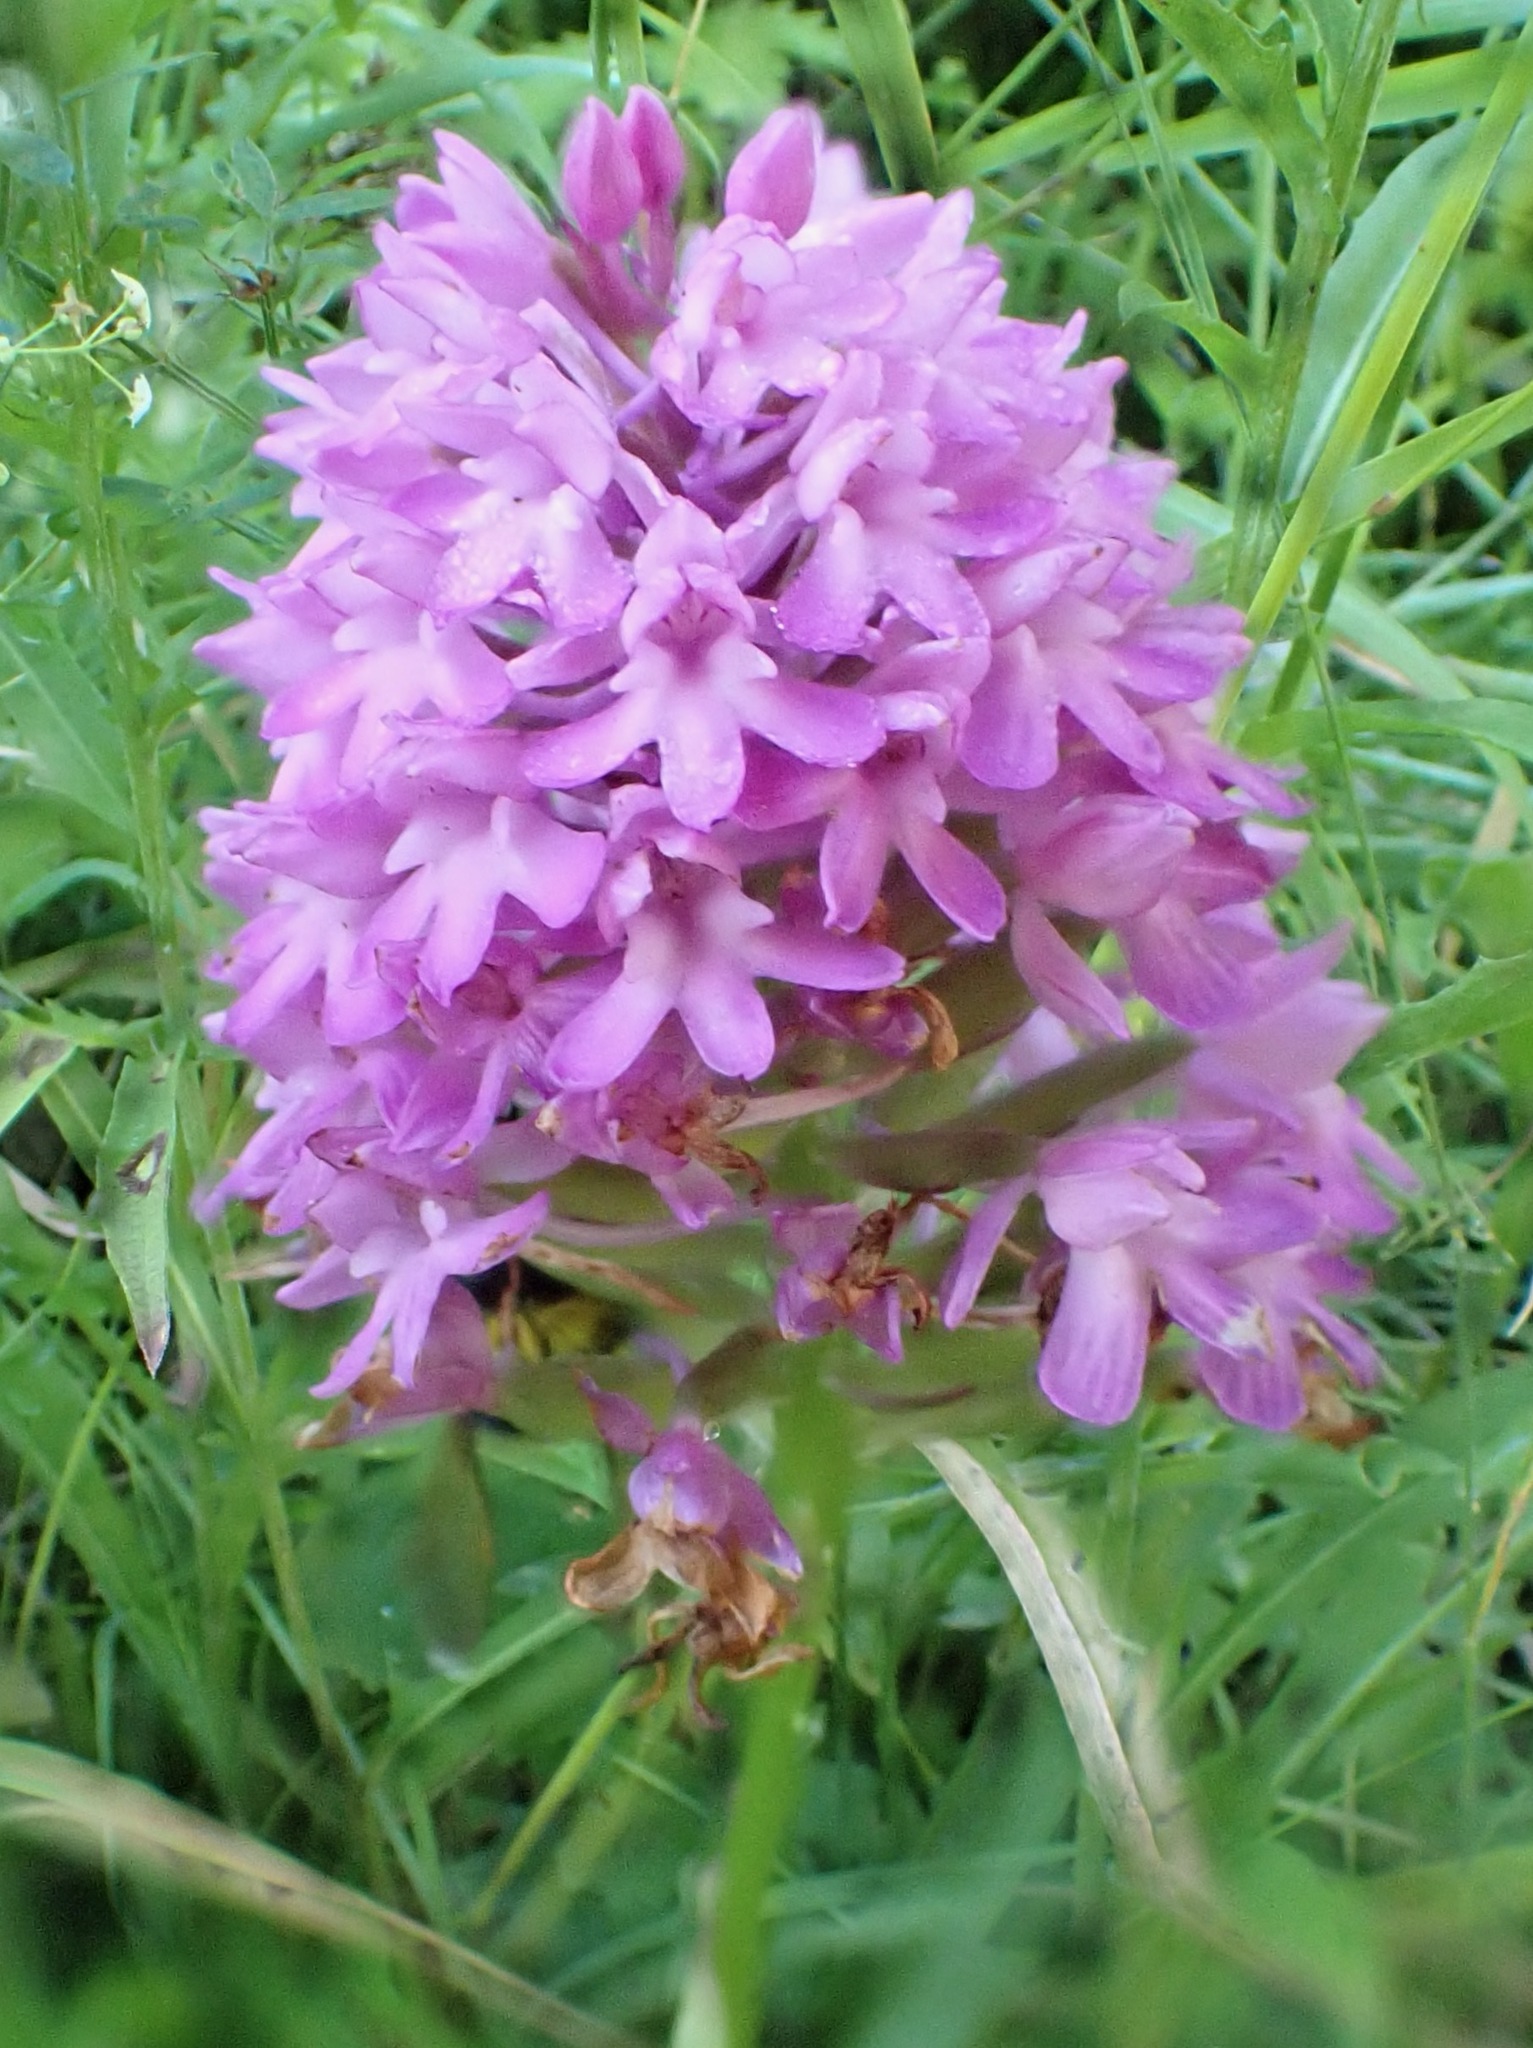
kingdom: Plantae
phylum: Tracheophyta
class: Liliopsida
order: Asparagales
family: Orchidaceae
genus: Anacamptis
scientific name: Anacamptis pyramidalis
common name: Pyramidal orchid
